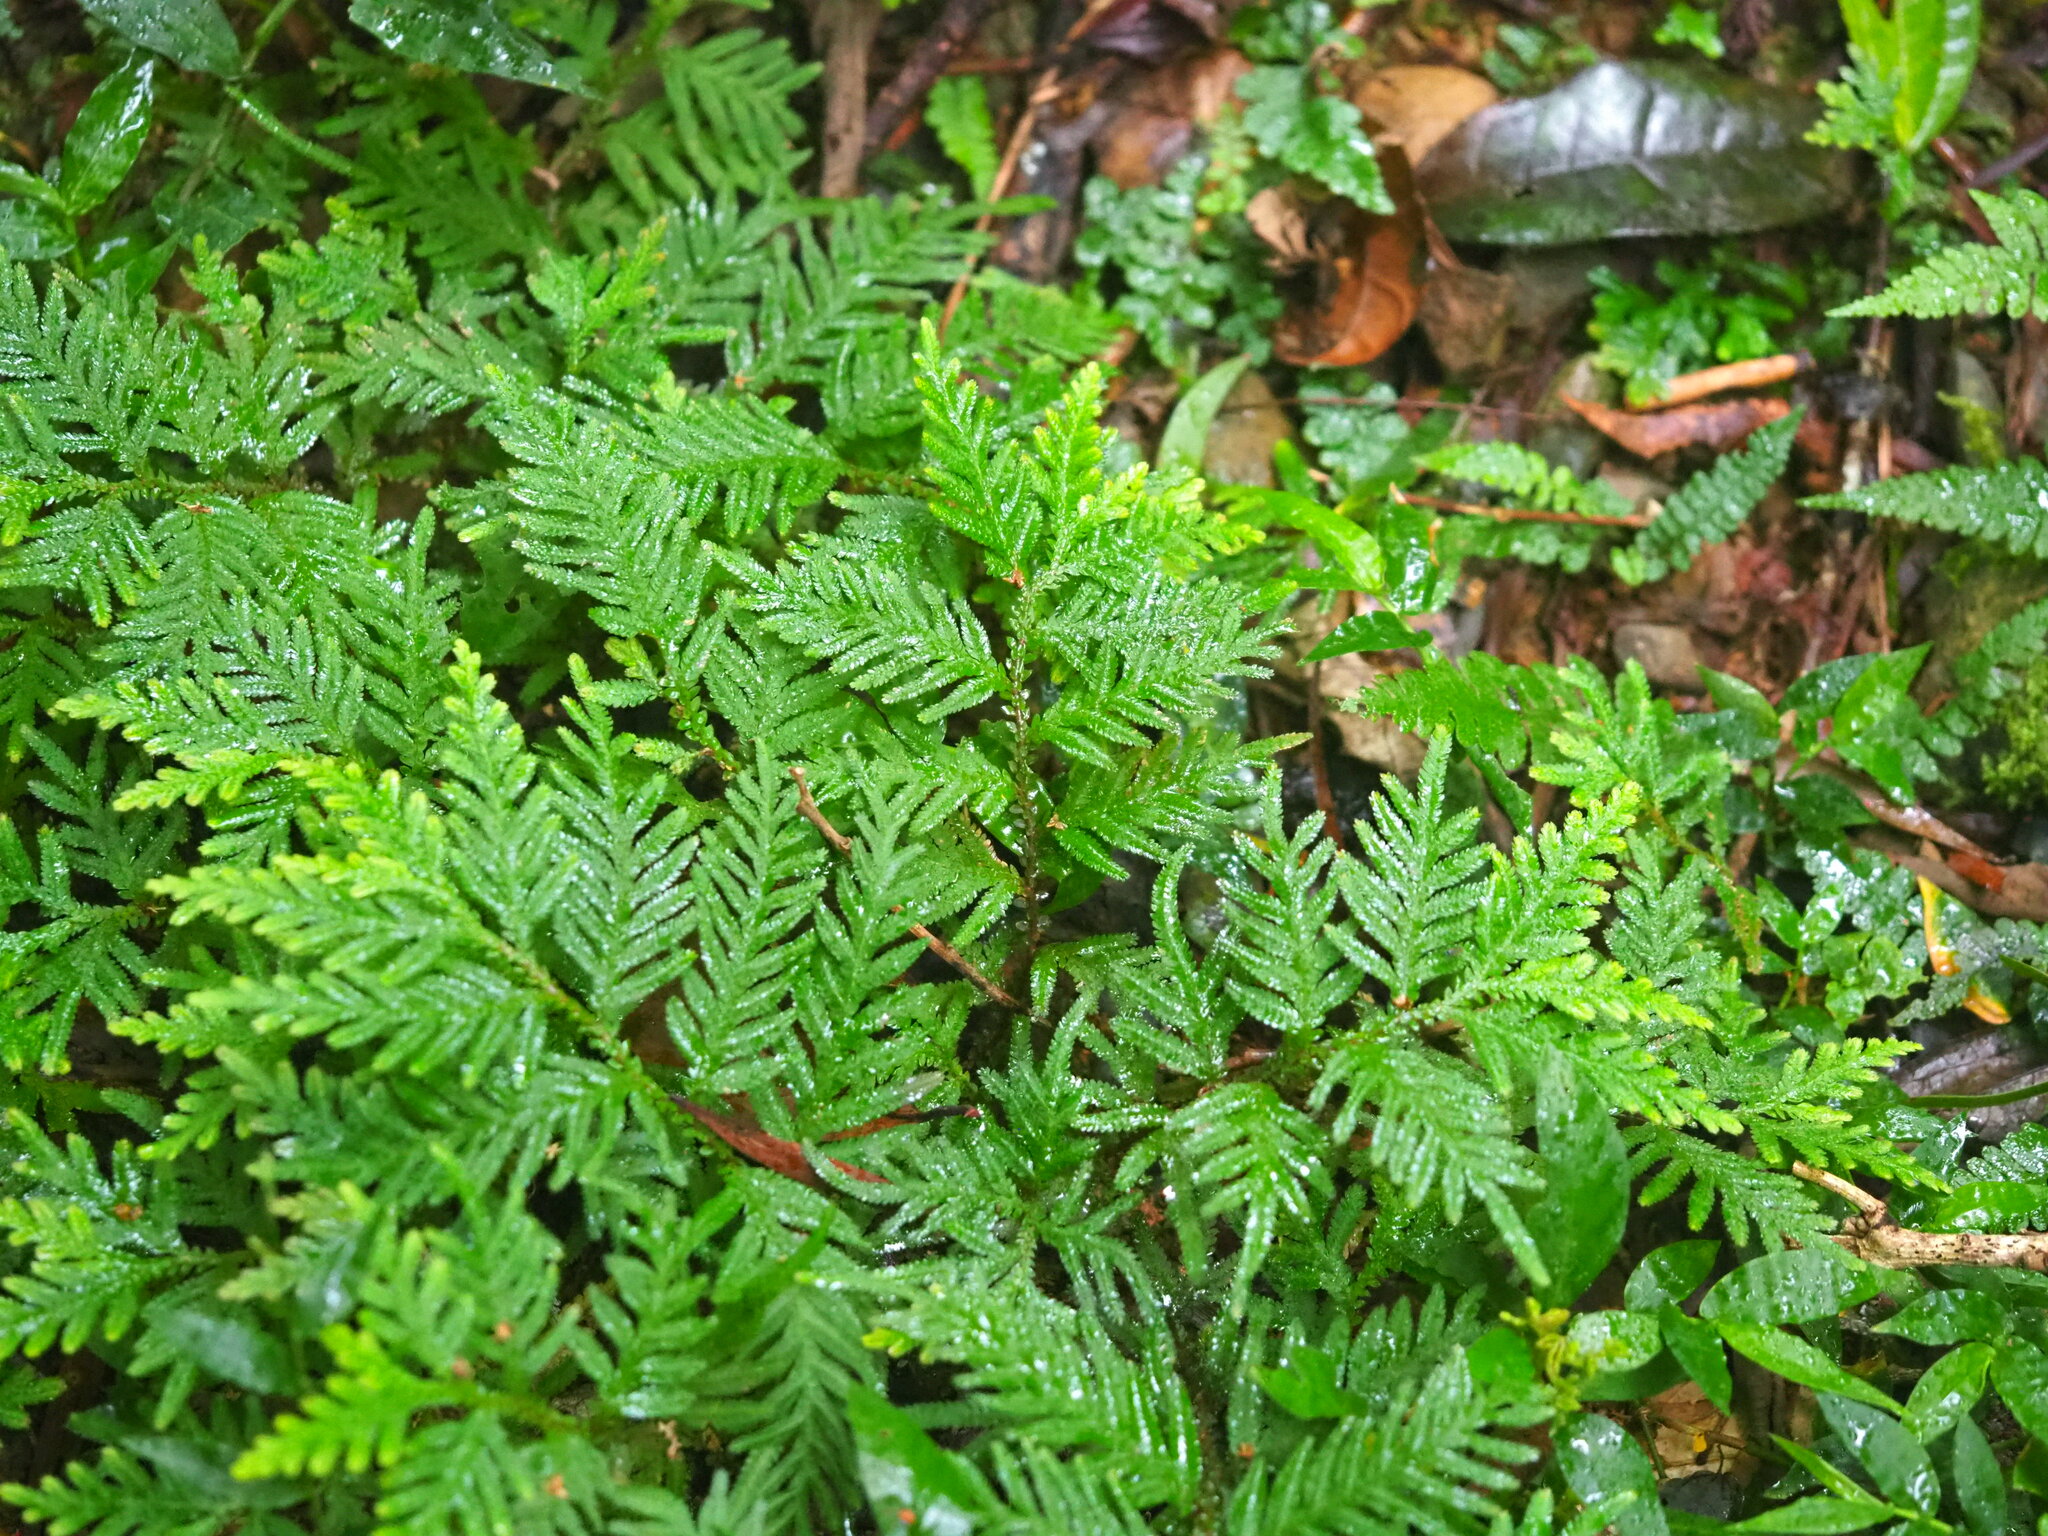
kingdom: Plantae
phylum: Tracheophyta
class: Lycopodiopsida
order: Selaginellales
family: Selaginellaceae
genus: Selaginella
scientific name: Selaginella delicatula
